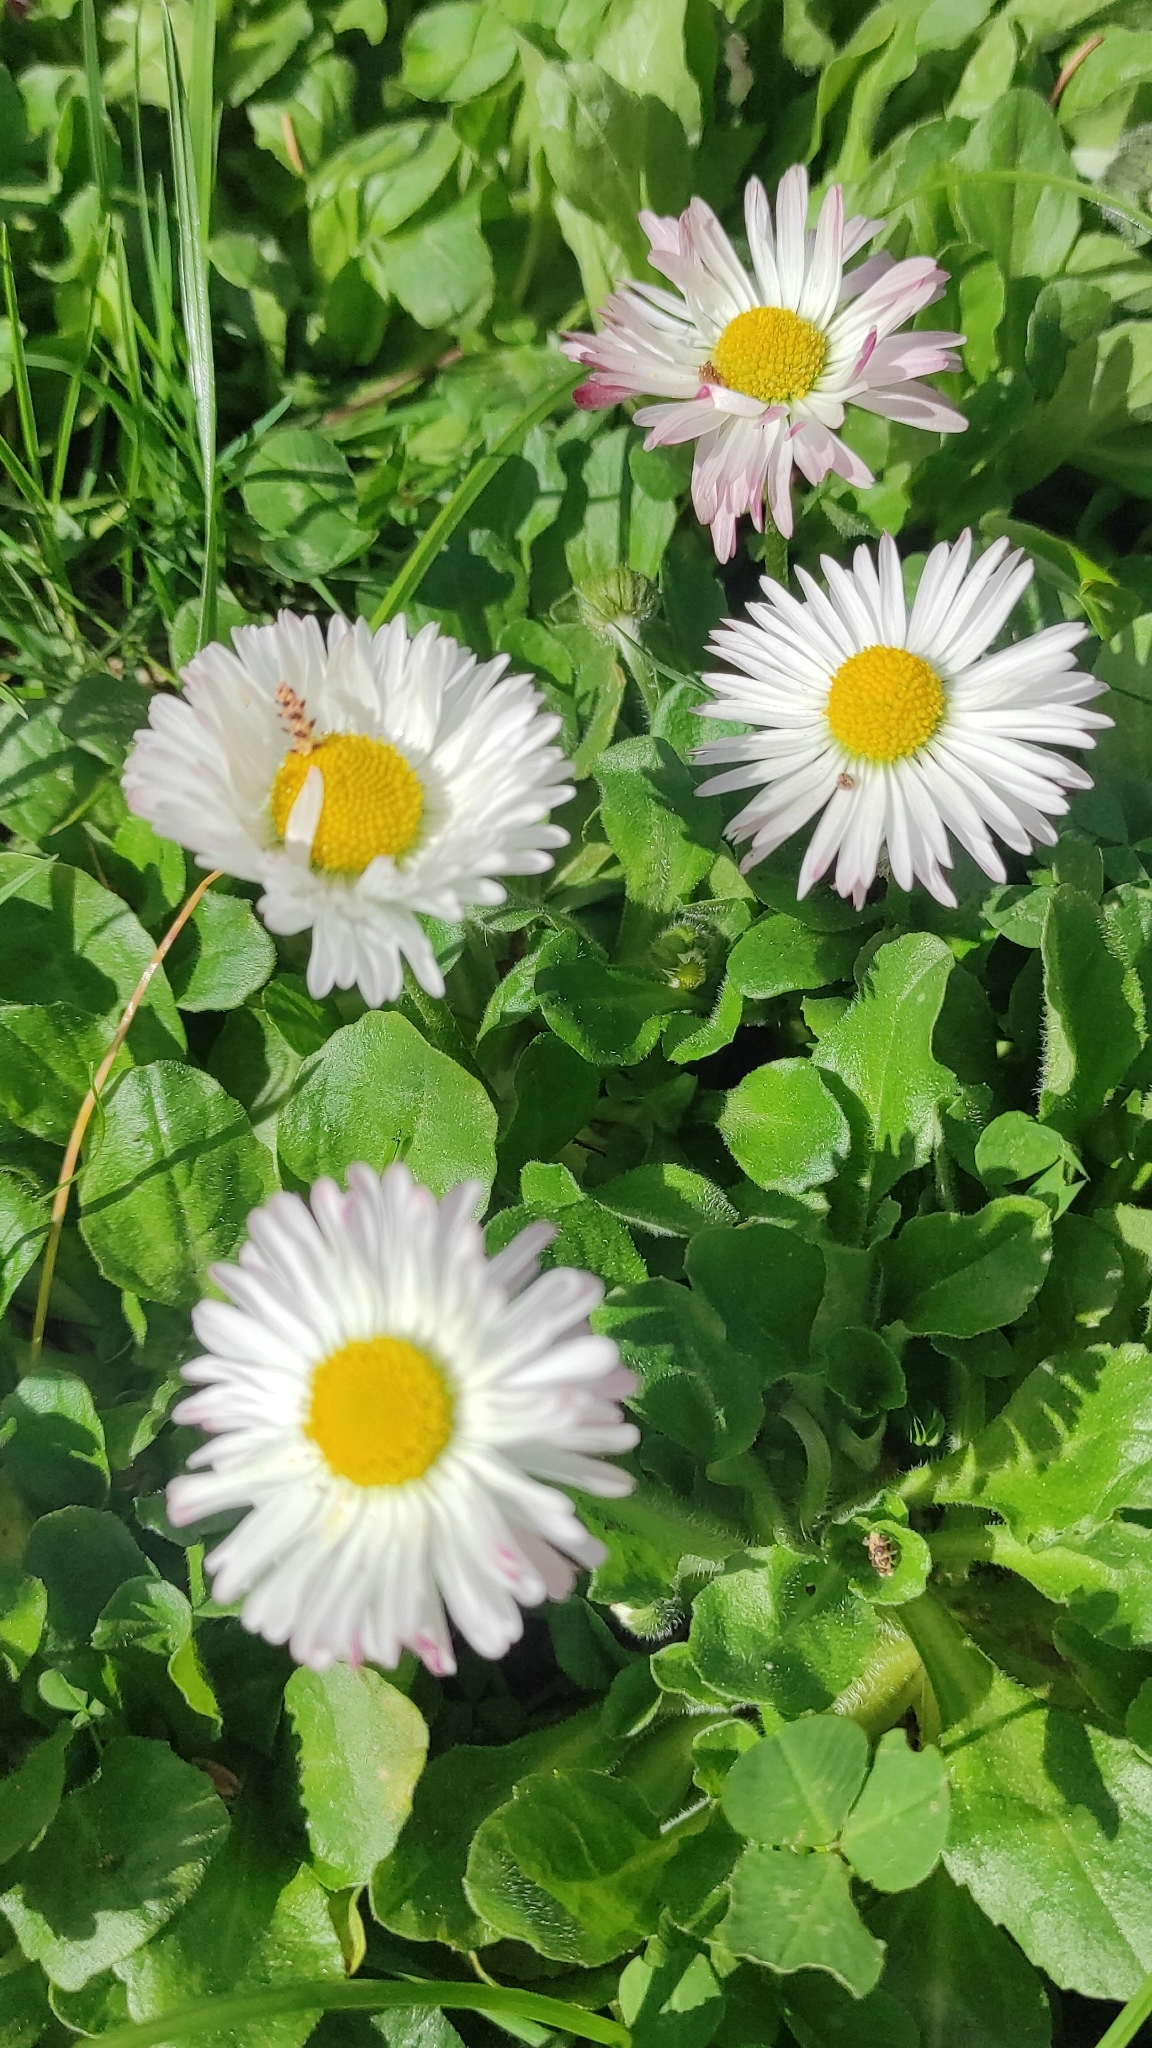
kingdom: Plantae
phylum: Tracheophyta
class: Magnoliopsida
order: Asterales
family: Asteraceae
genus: Bellis
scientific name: Bellis perennis
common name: Lawndaisy
